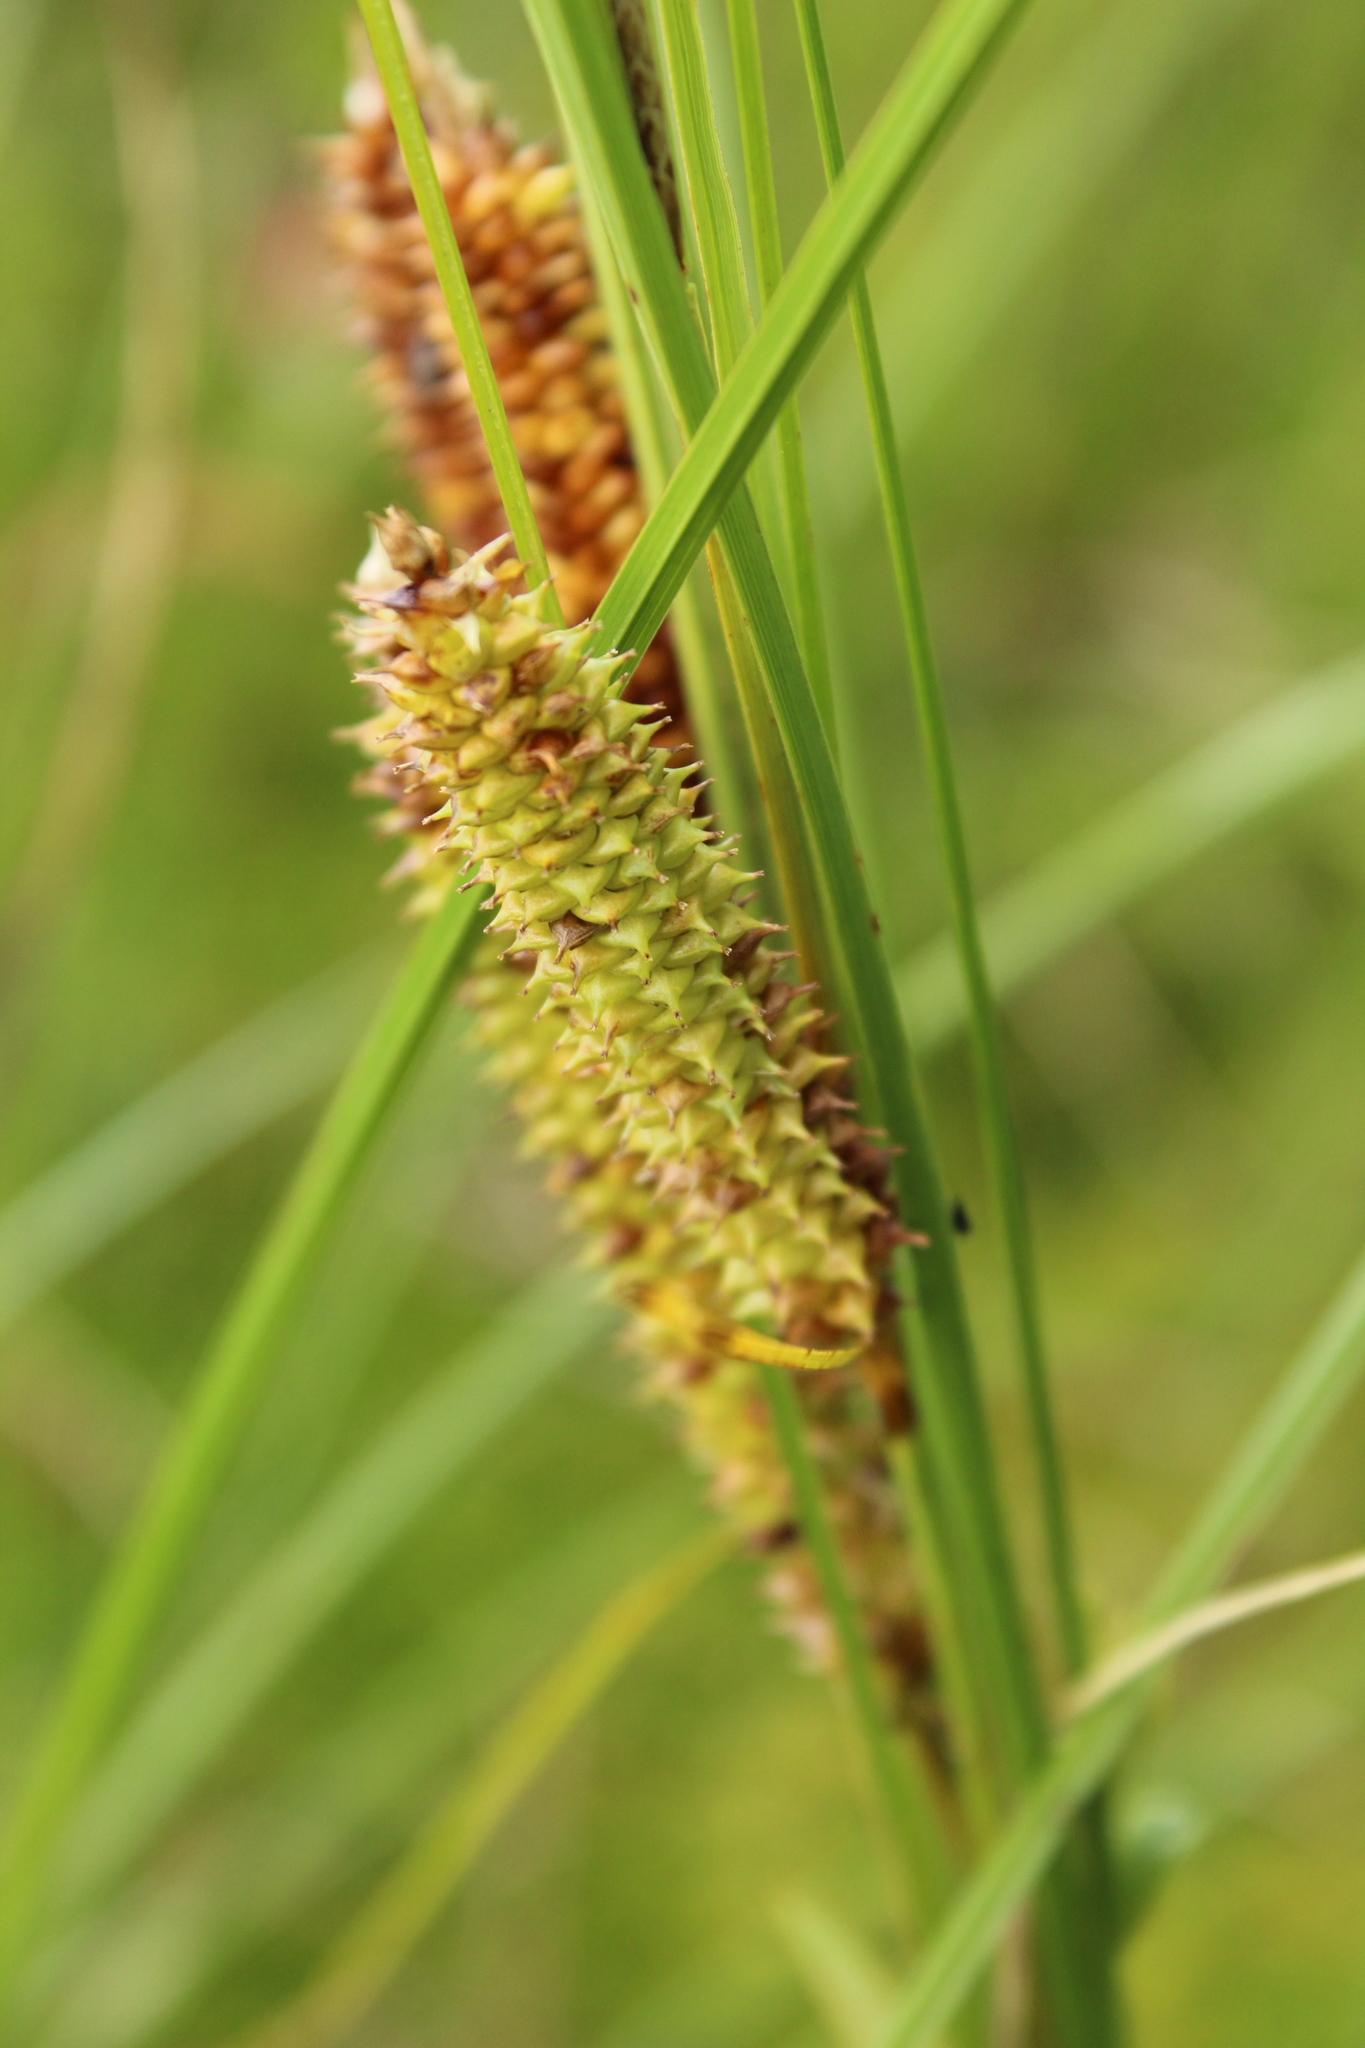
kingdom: Plantae
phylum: Tracheophyta
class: Liliopsida
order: Poales
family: Cyperaceae
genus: Carex
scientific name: Carex rostrata
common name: Bottle sedge
